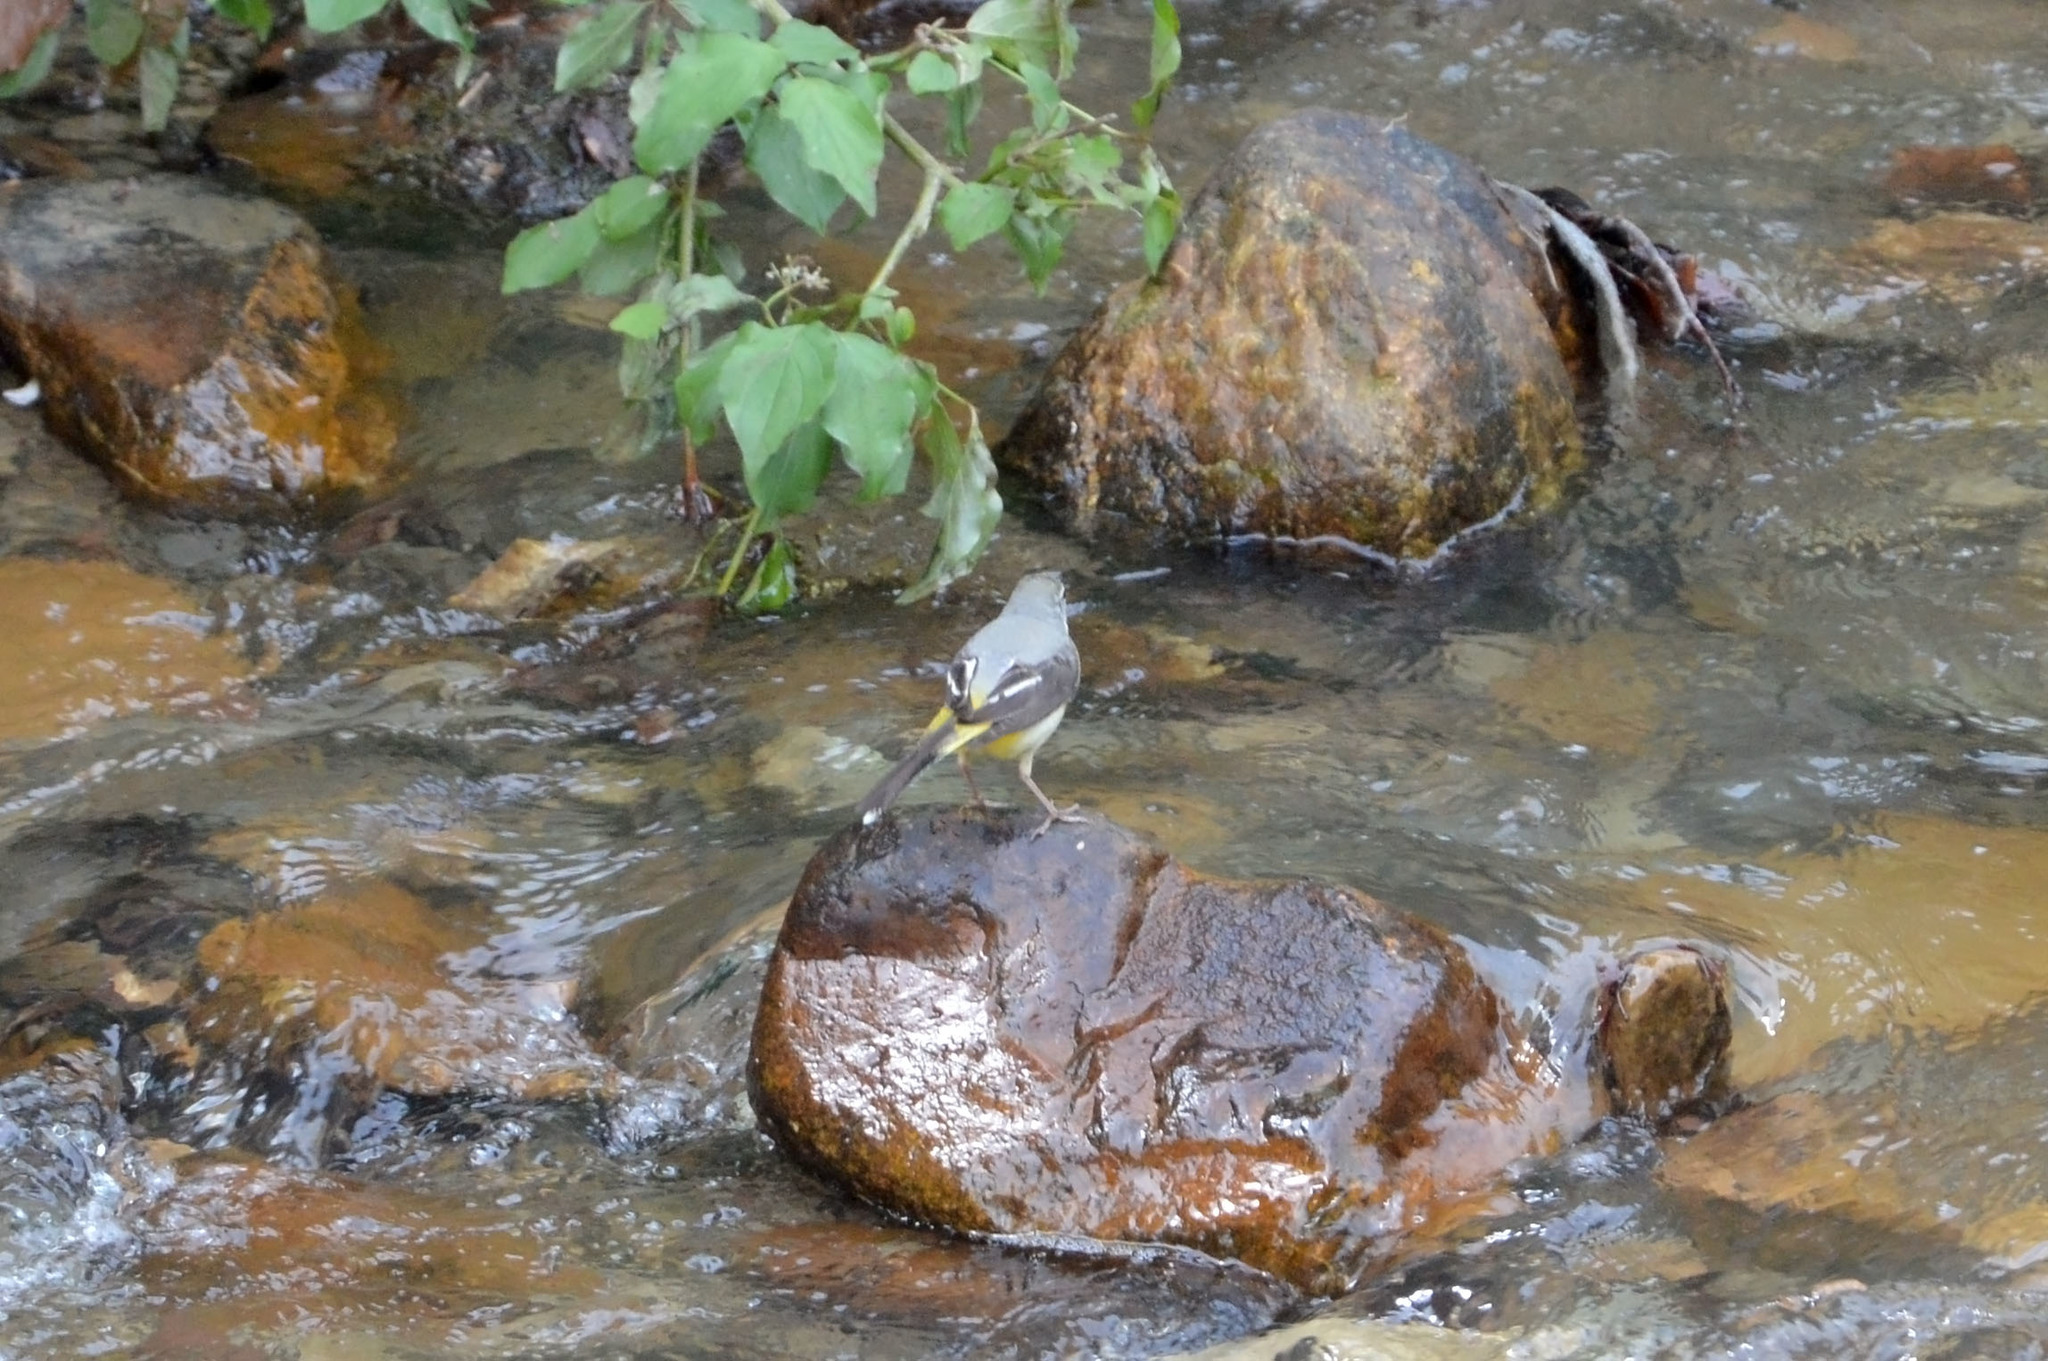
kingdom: Animalia
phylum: Chordata
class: Aves
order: Passeriformes
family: Motacillidae
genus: Motacilla
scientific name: Motacilla cinerea
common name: Grey wagtail
